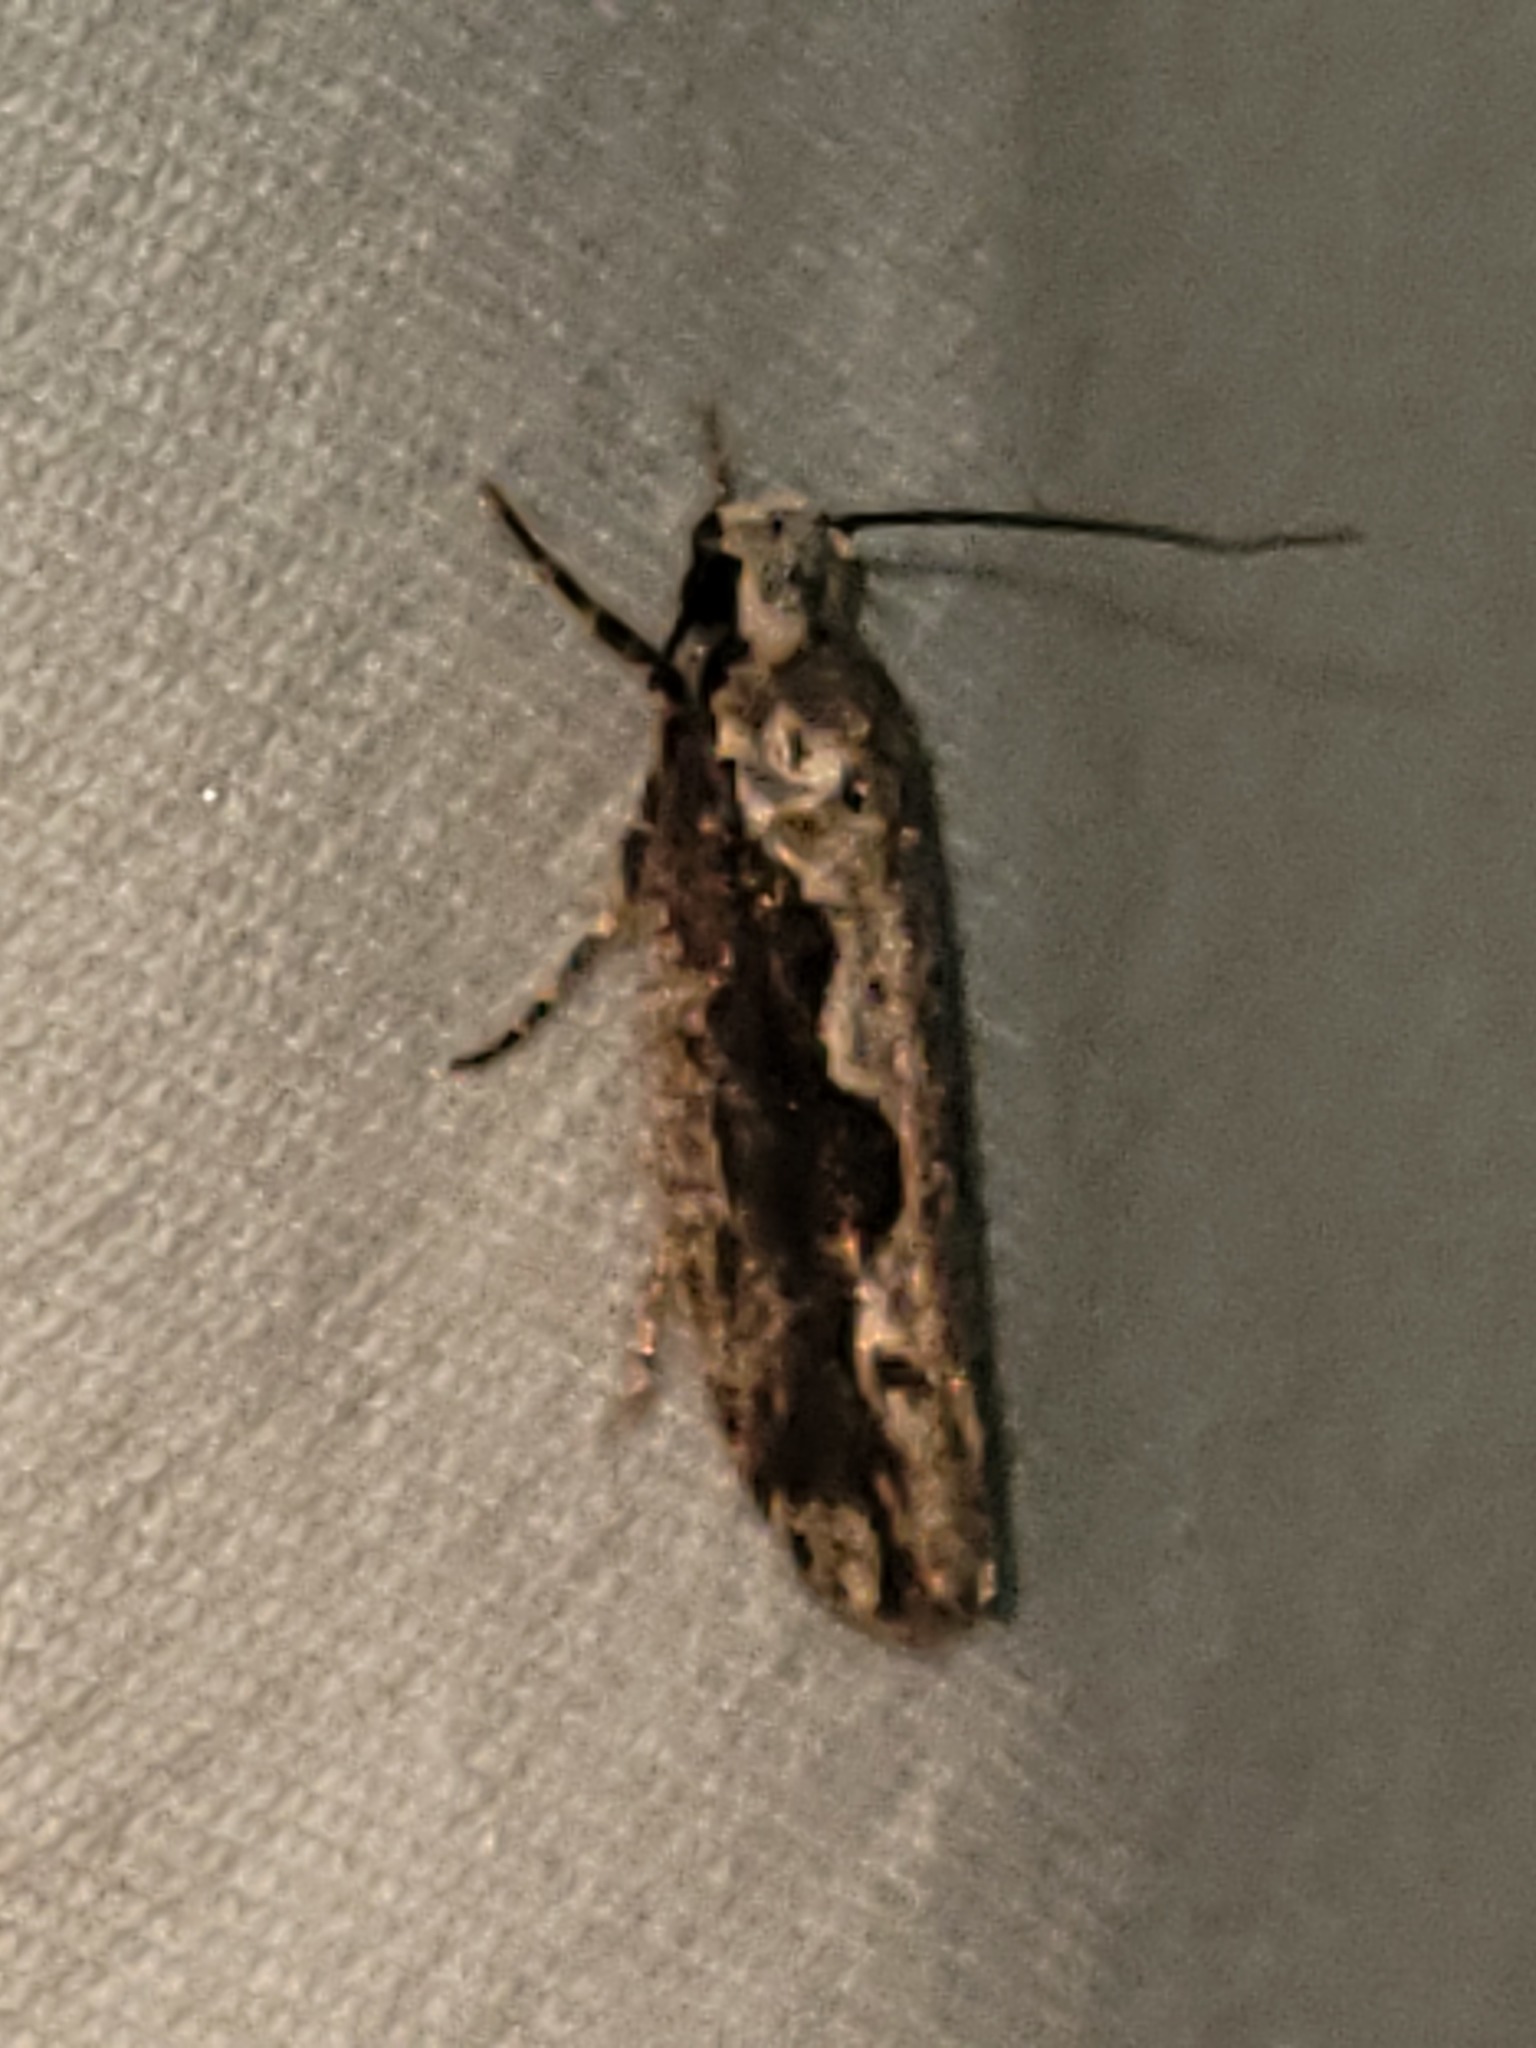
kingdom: Animalia
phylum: Arthropoda
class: Insecta
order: Lepidoptera
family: Ethmiidae
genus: Ethmia
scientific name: Ethmia semiombra
